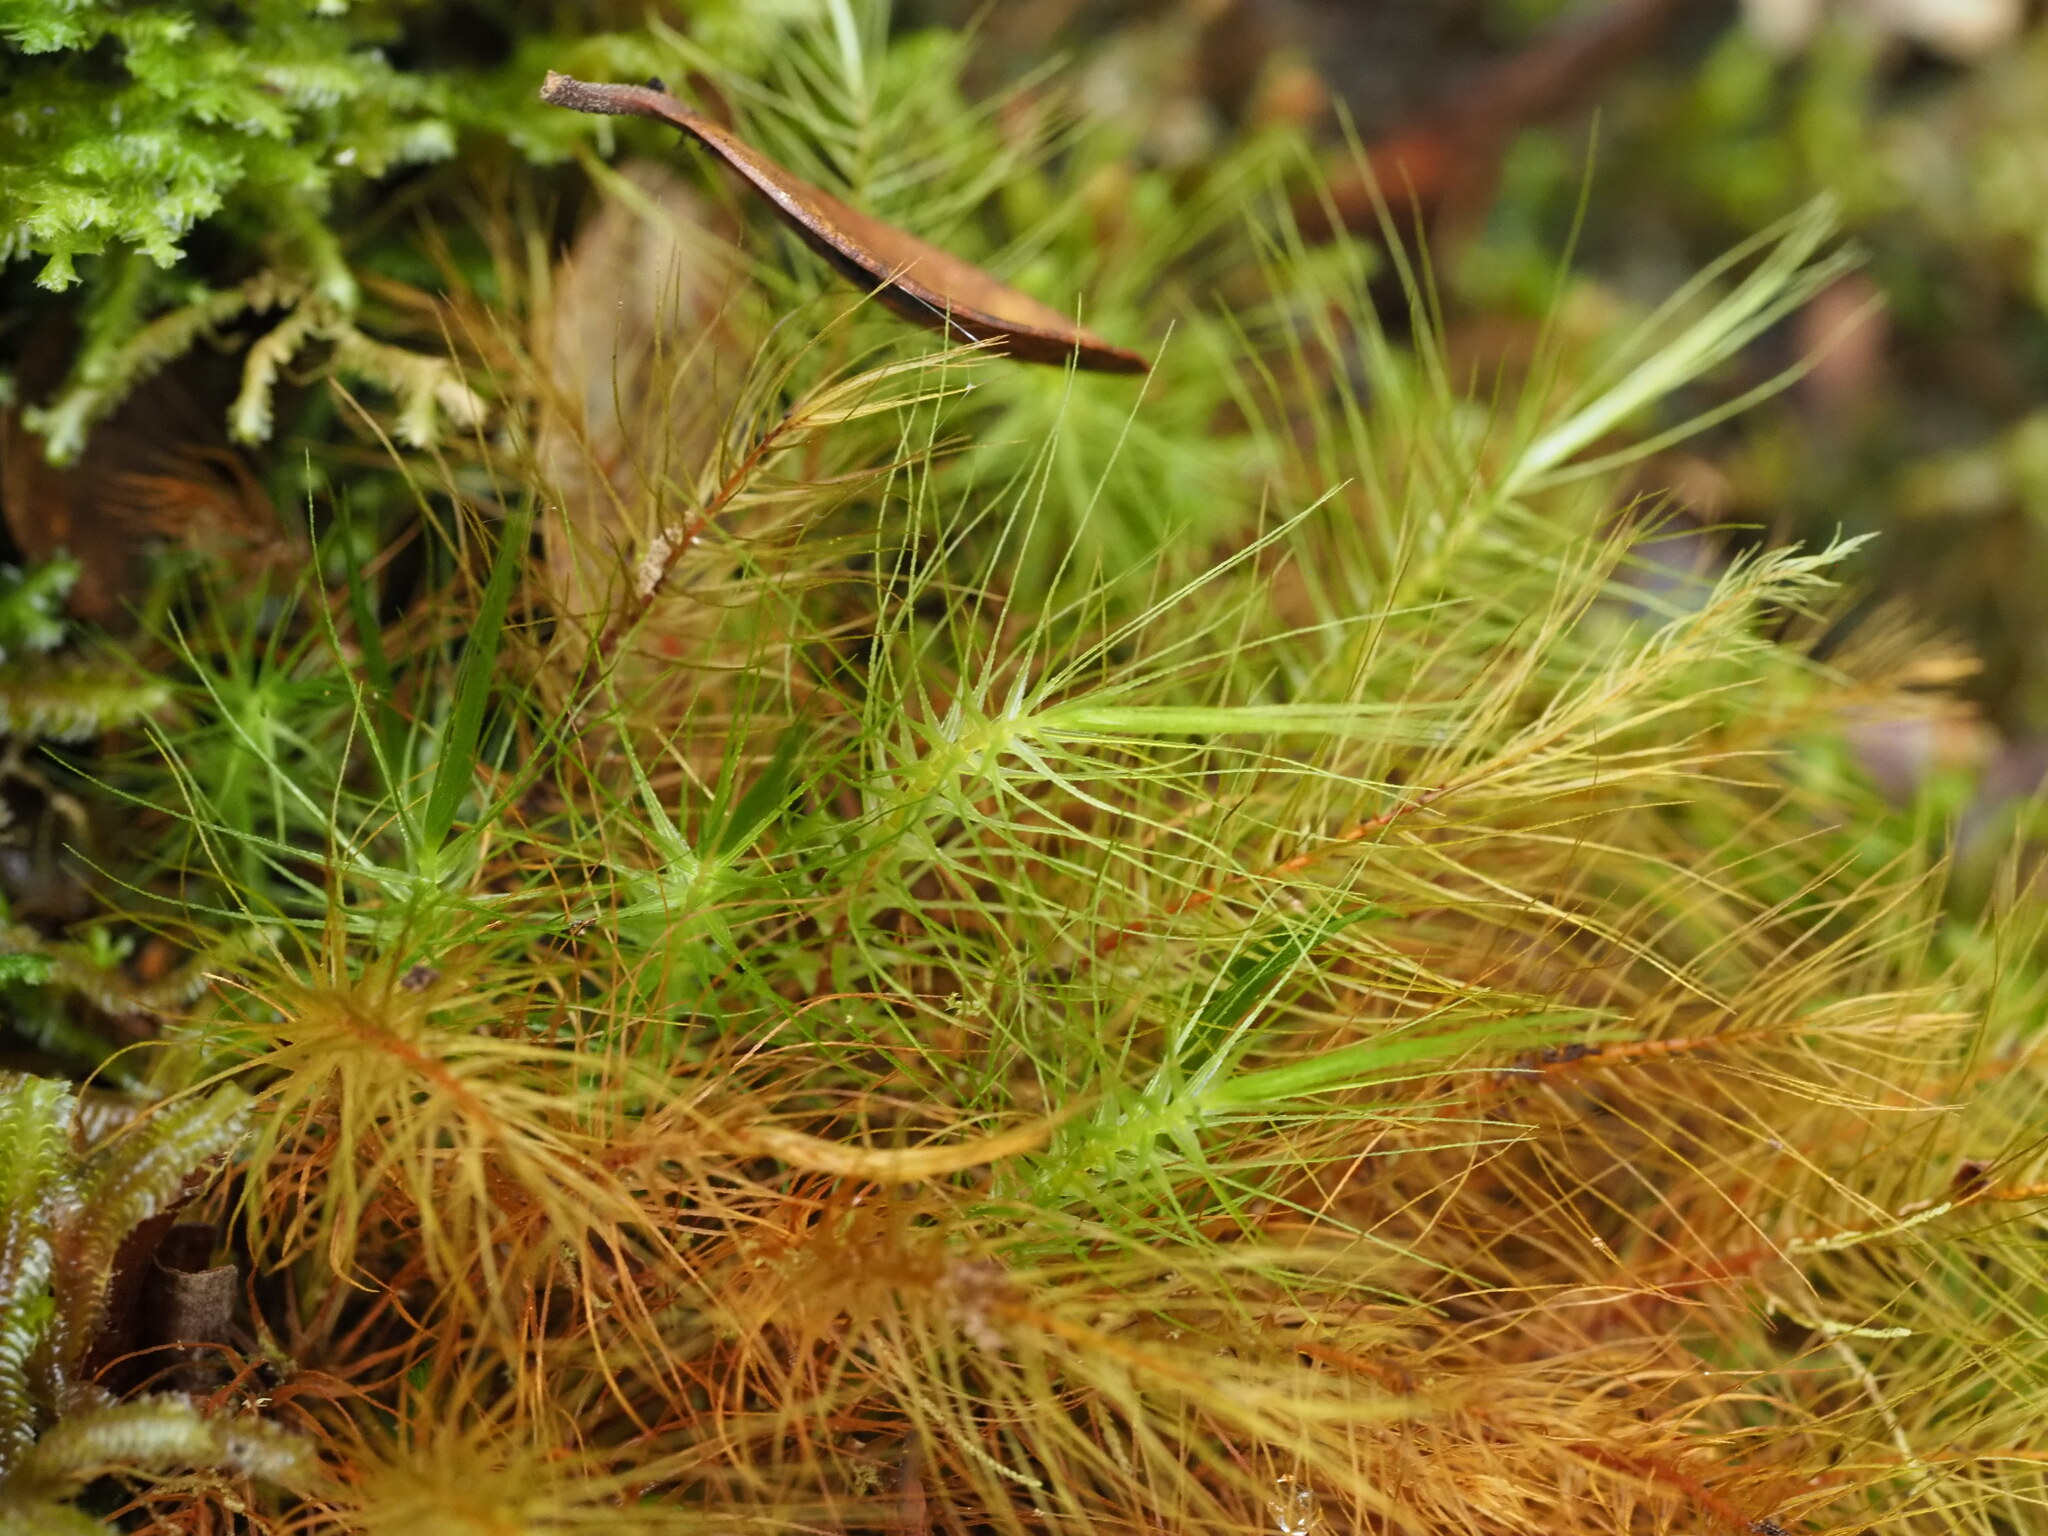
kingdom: Plantae
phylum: Bryophyta
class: Bryopsida
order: Rhizogoniales
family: Calomniaceae
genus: Pyrrhobryum
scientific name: Pyrrhobryum pungens
